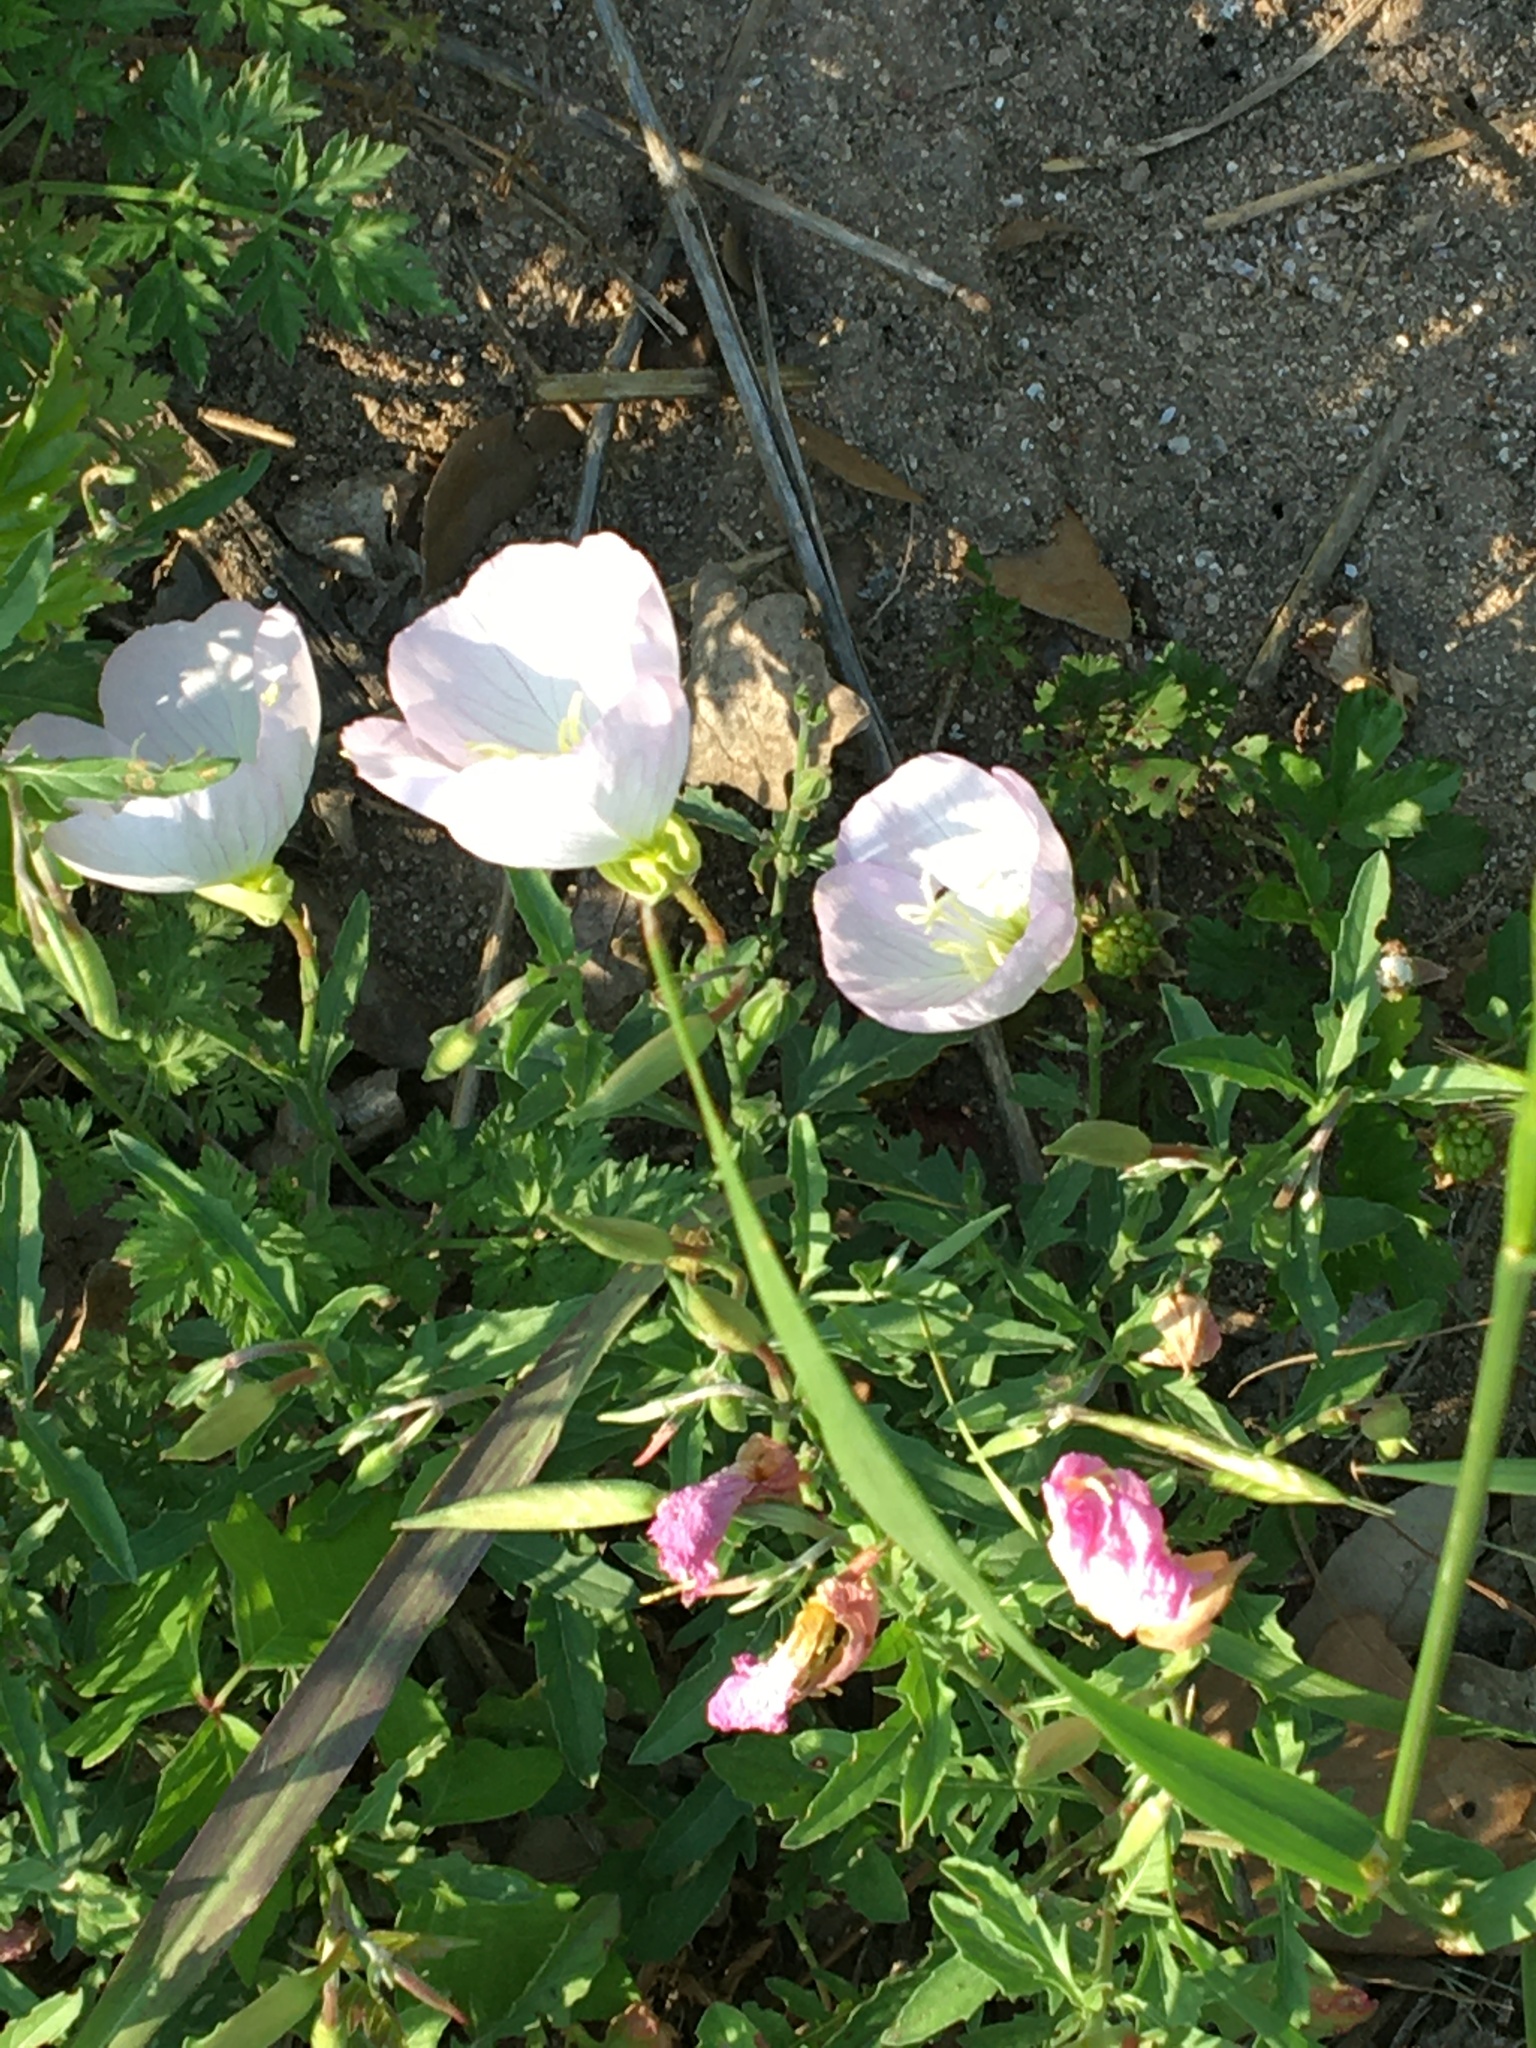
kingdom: Plantae
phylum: Tracheophyta
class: Magnoliopsida
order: Myrtales
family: Onagraceae
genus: Oenothera
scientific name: Oenothera speciosa
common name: White evening-primrose
